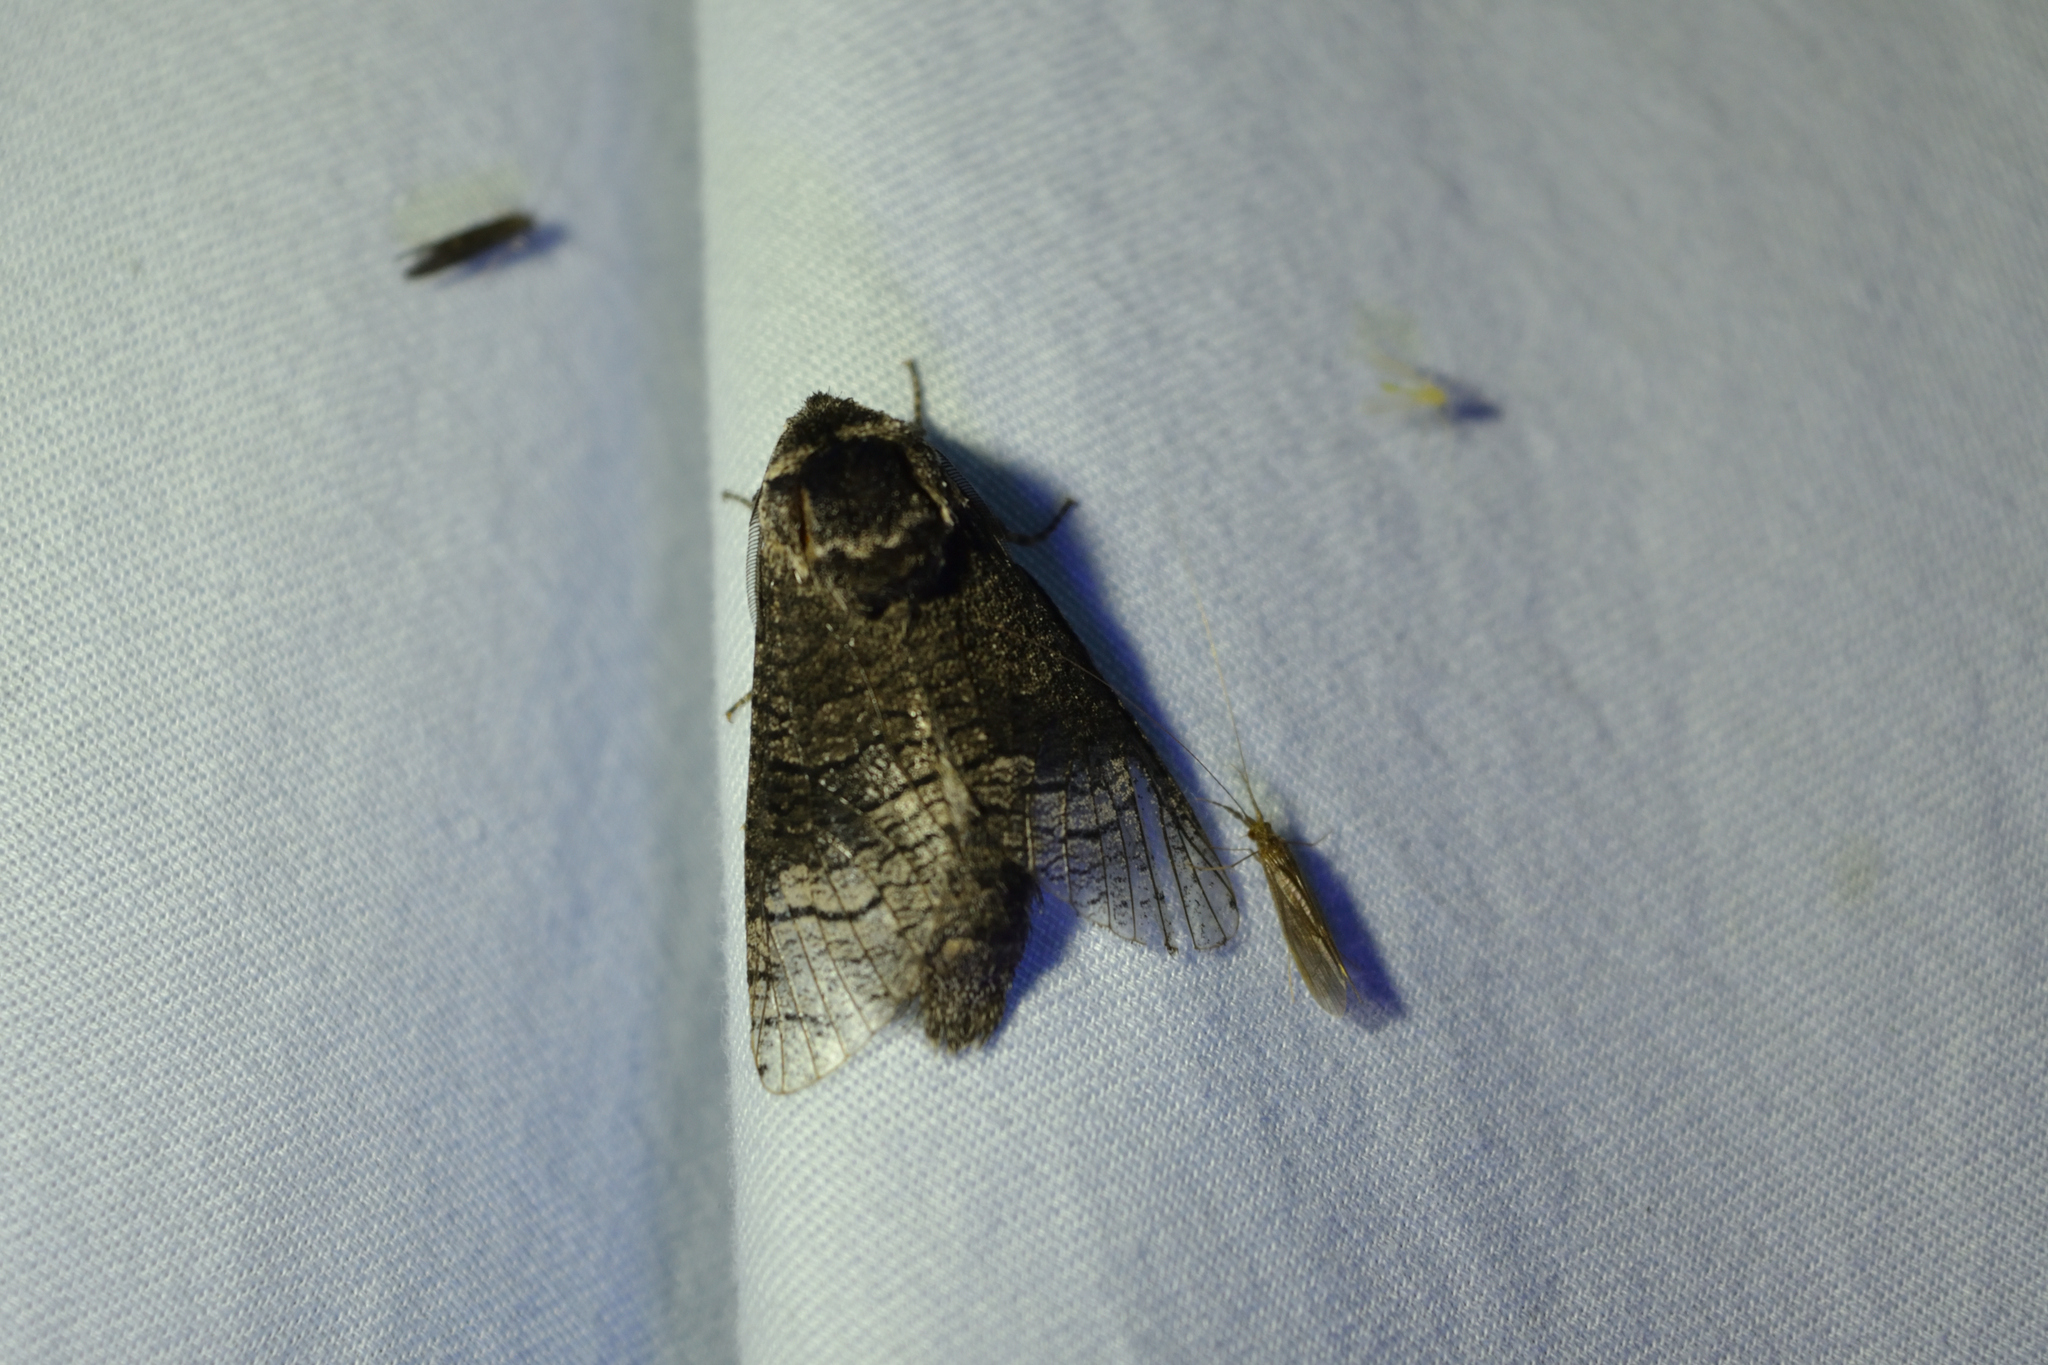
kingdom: Animalia
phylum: Arthropoda
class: Insecta
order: Lepidoptera
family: Cossidae
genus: Acossus
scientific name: Acossus centerensis
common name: Poplar carpenterworm moth
